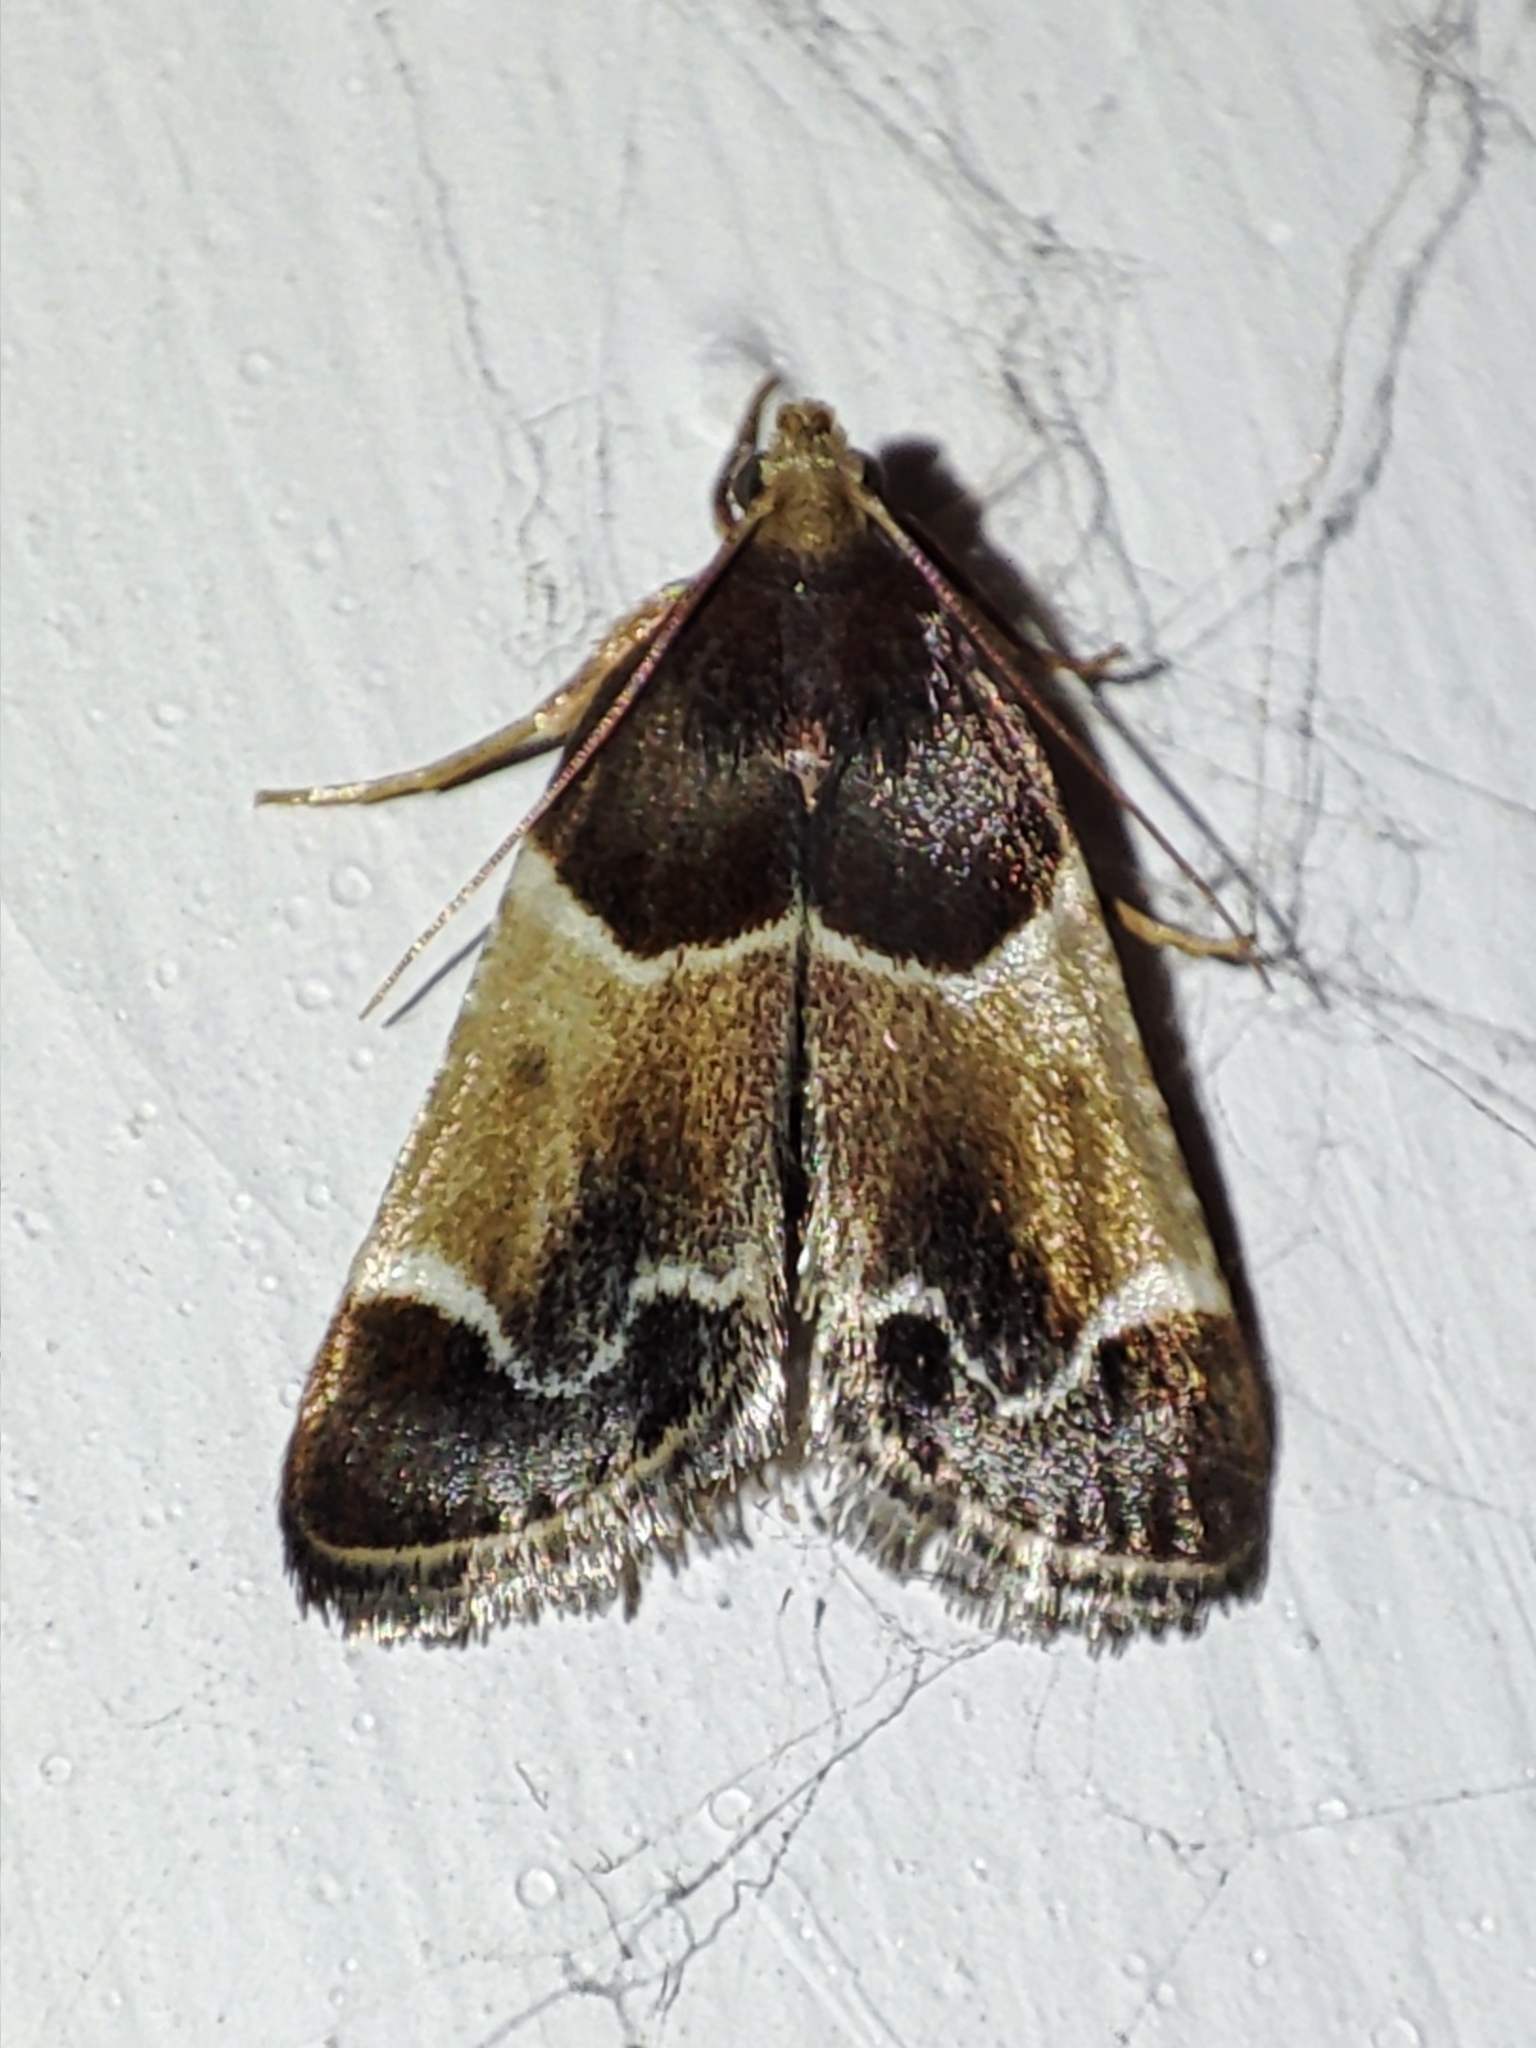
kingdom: Animalia
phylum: Arthropoda
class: Insecta
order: Lepidoptera
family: Pyralidae
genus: Pyralis
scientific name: Pyralis farinalis
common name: Meal moth
